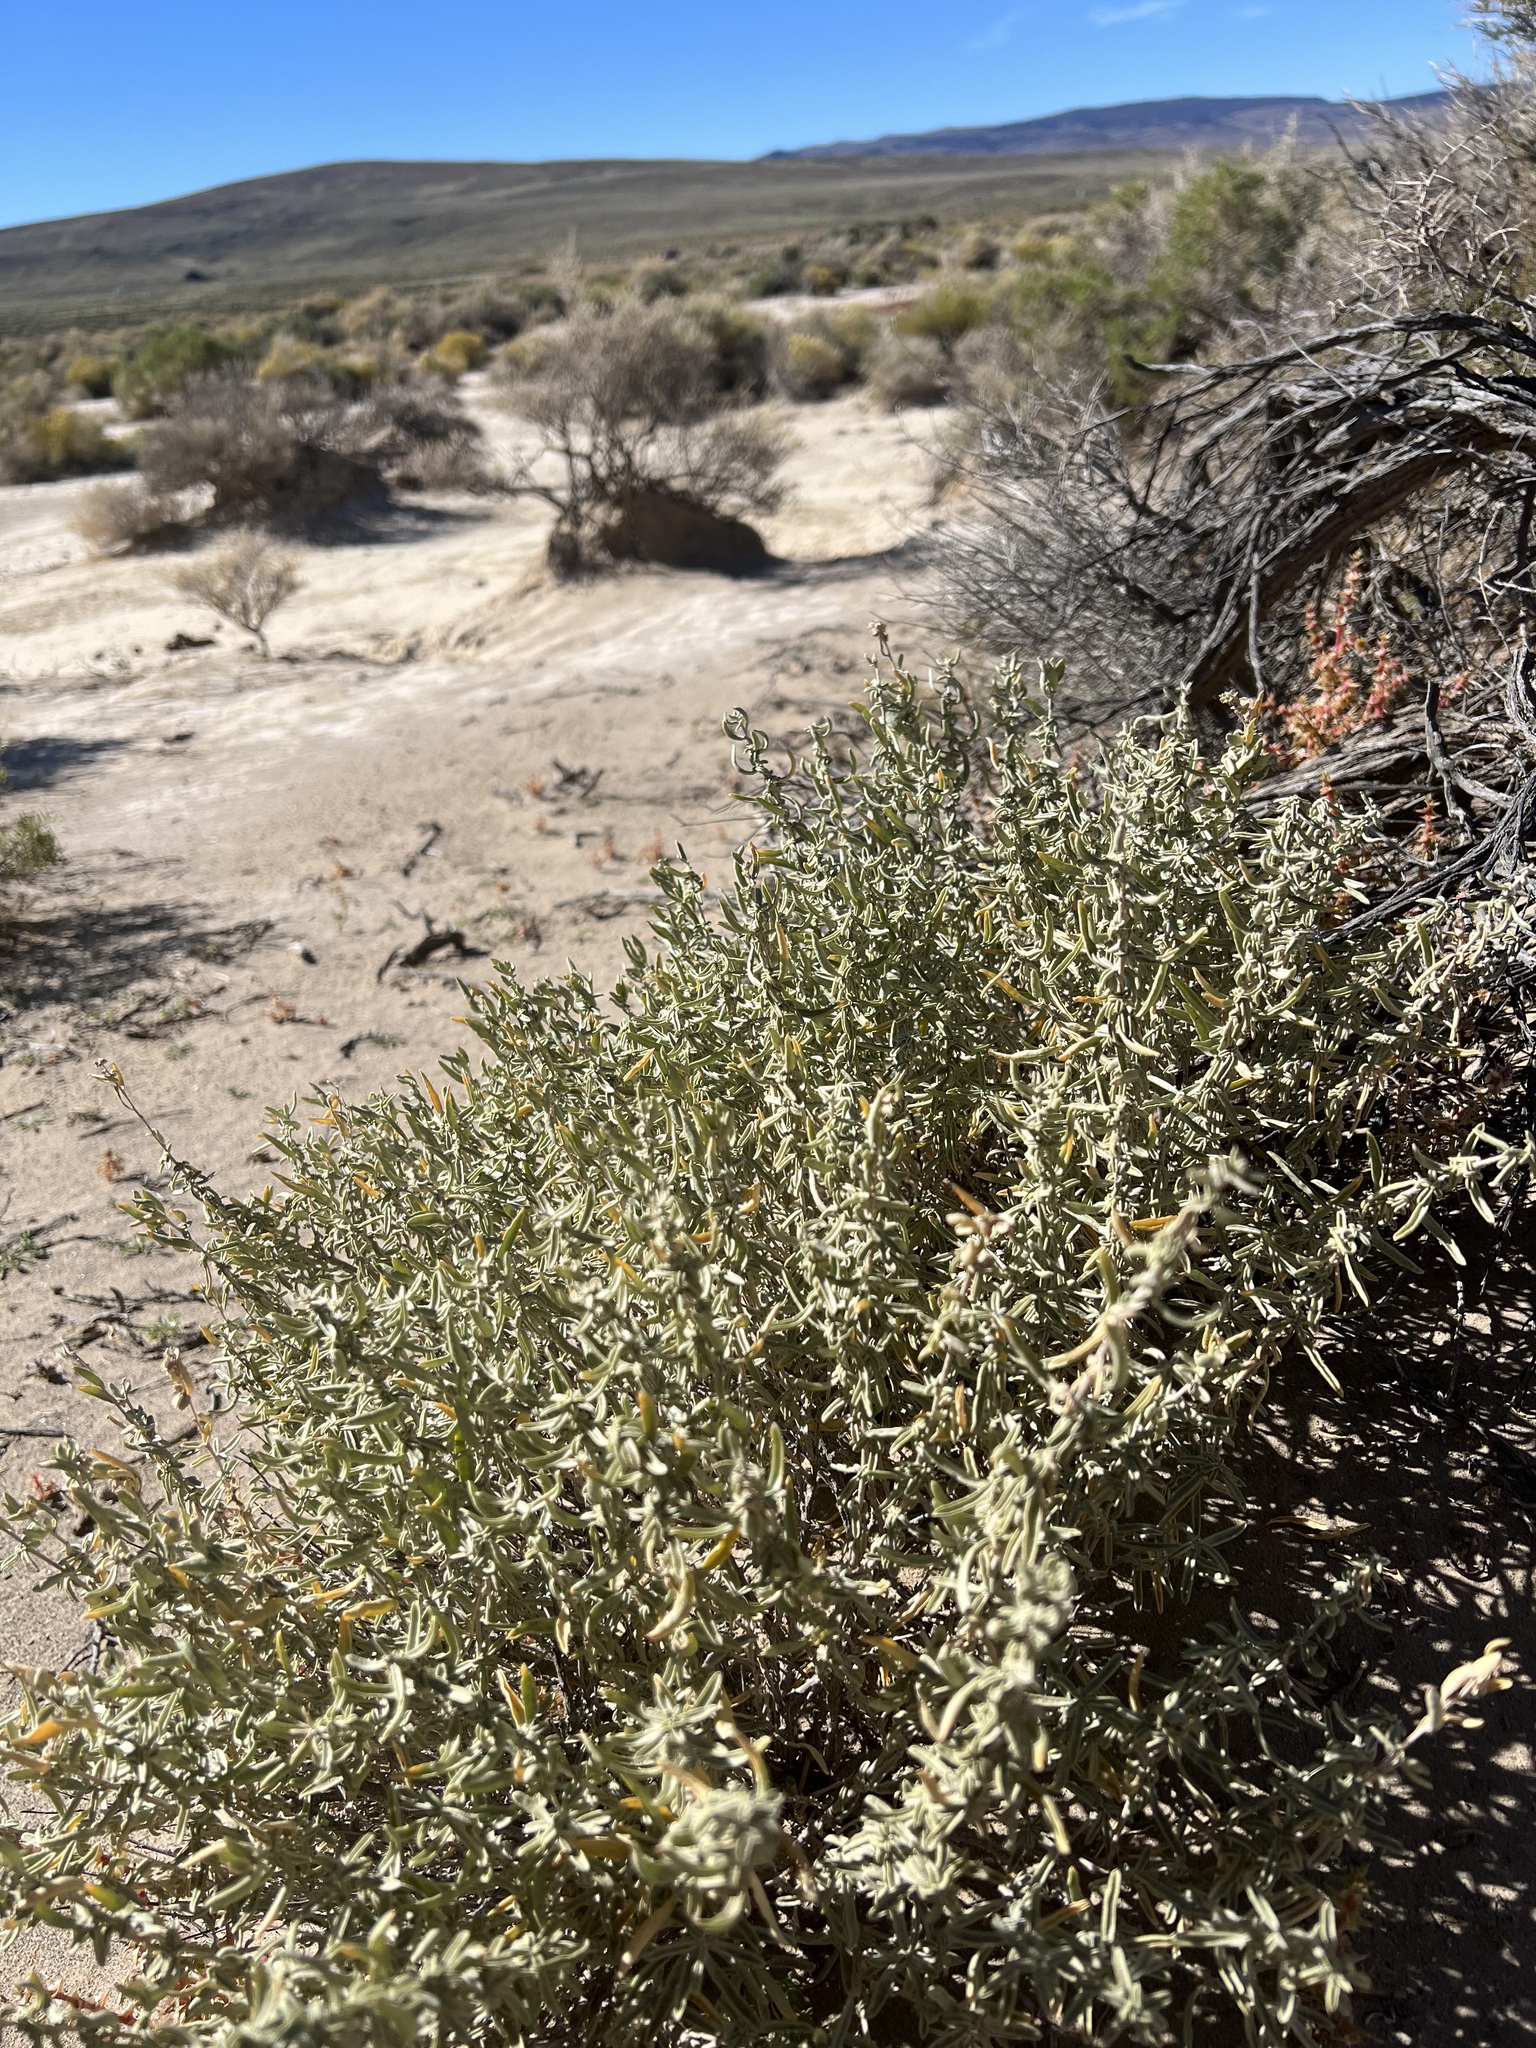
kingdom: Plantae
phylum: Tracheophyta
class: Magnoliopsida
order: Caryophyllales
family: Amaranthaceae
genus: Atriplex
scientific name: Atriplex canescens
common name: Four-wing saltbush
